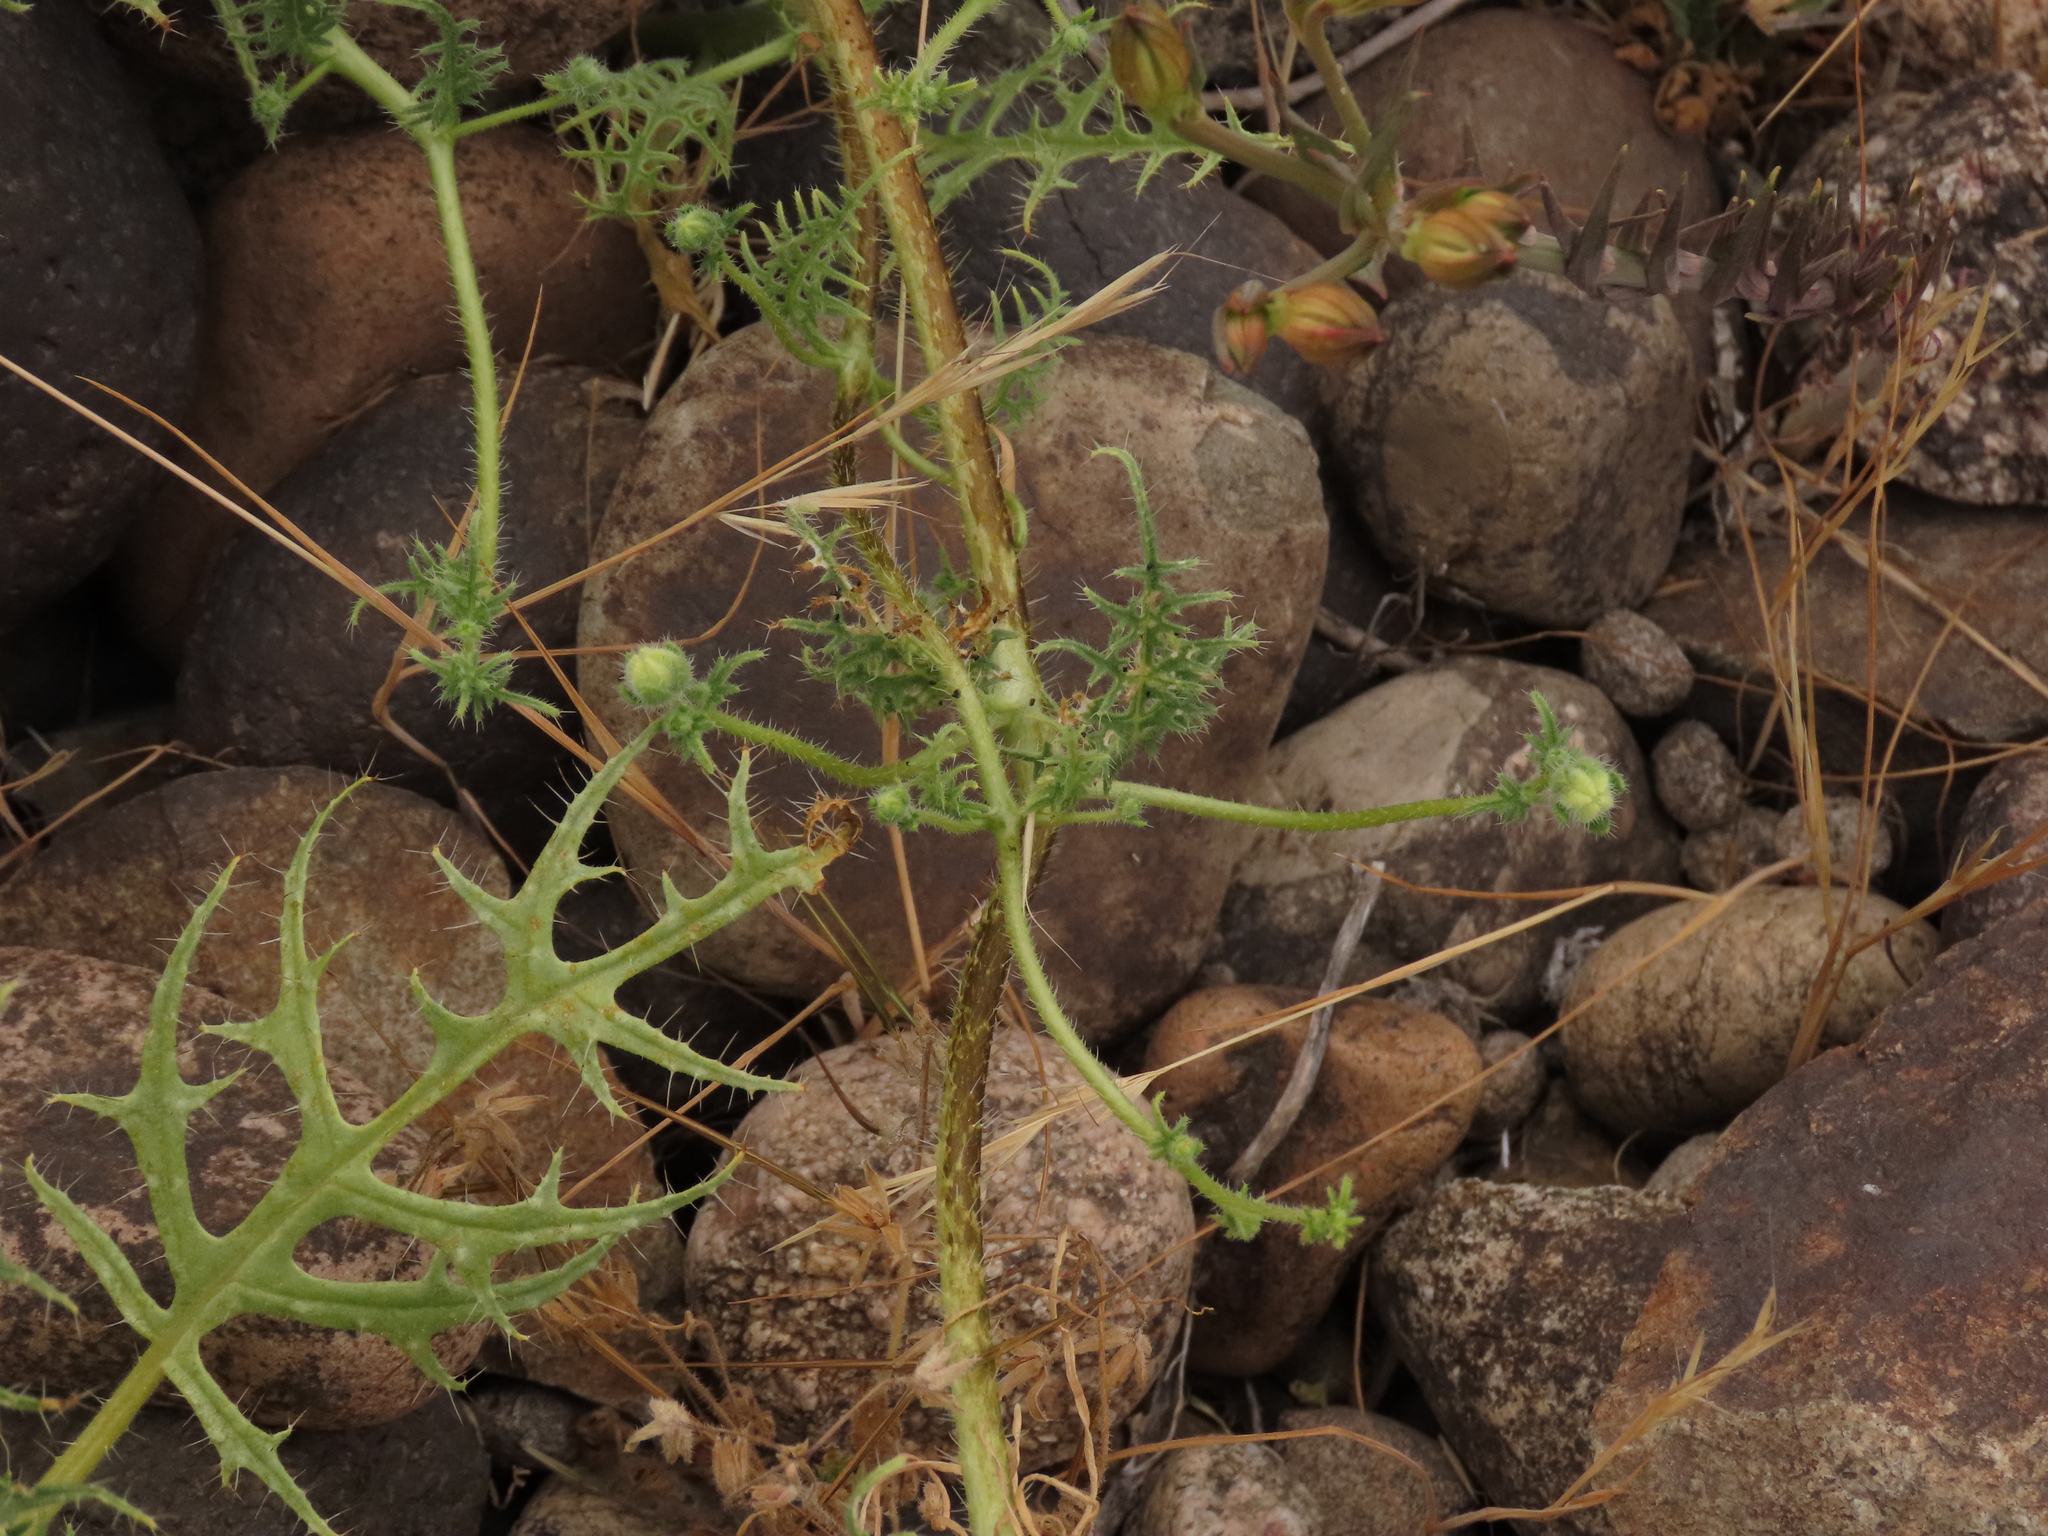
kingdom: Plantae
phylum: Tracheophyta
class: Magnoliopsida
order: Cornales
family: Loasaceae
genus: Loasa
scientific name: Loasa illapelina
